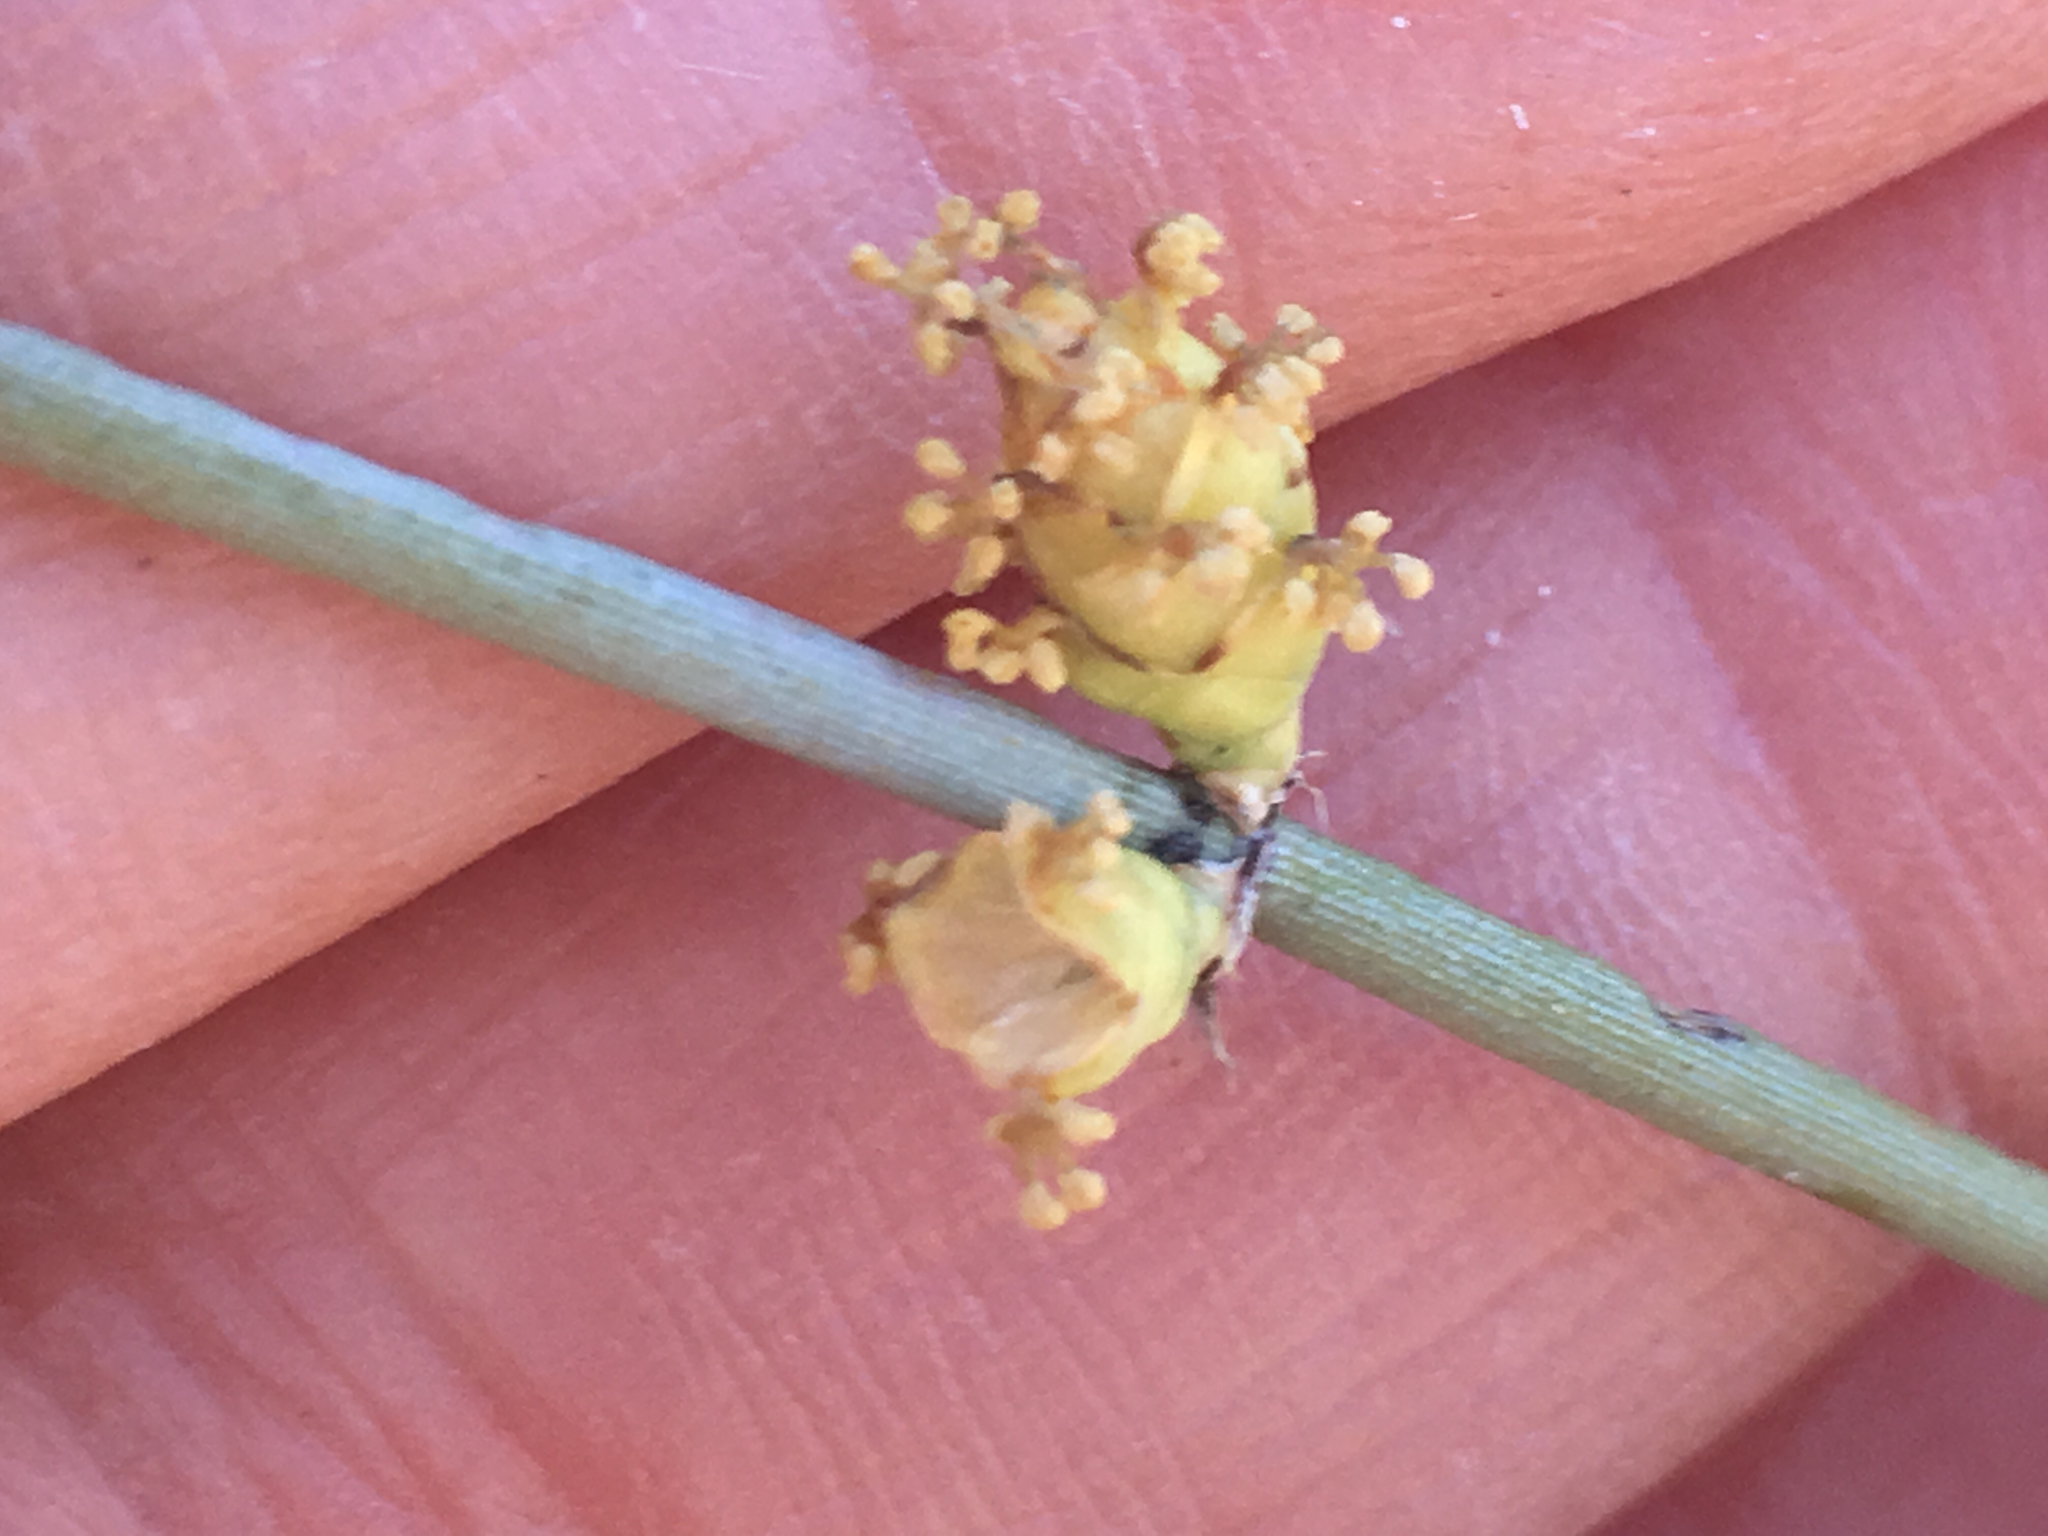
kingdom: Plantae
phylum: Tracheophyta
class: Gnetopsida
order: Ephedrales
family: Ephedraceae
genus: Ephedra
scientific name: Ephedra californica
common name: California ephedra
